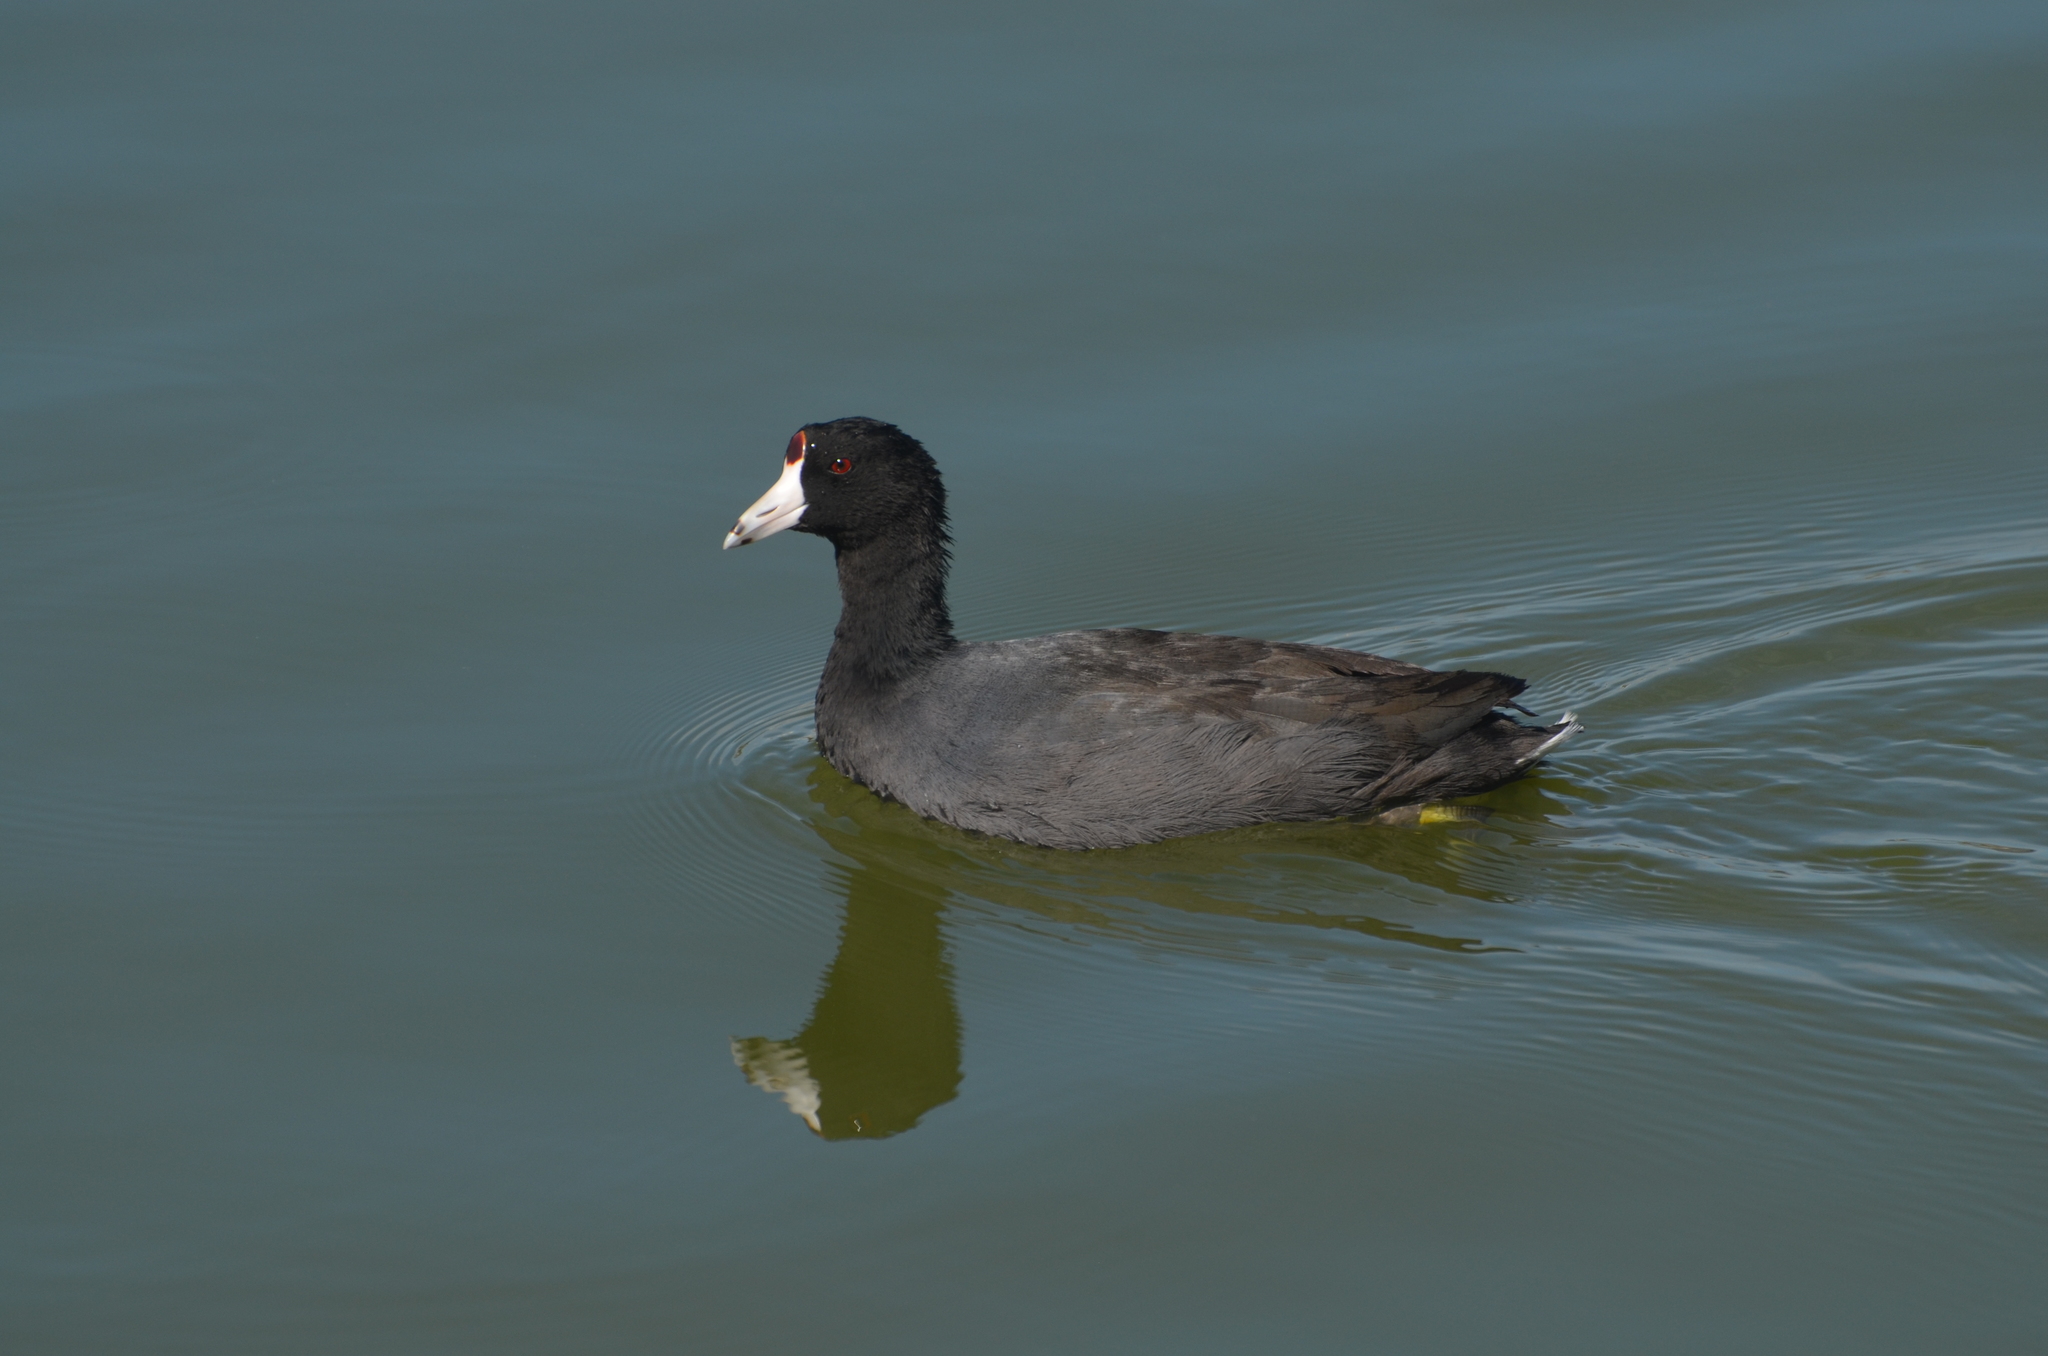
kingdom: Animalia
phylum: Chordata
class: Aves
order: Gruiformes
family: Rallidae
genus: Fulica
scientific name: Fulica americana
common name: American coot
